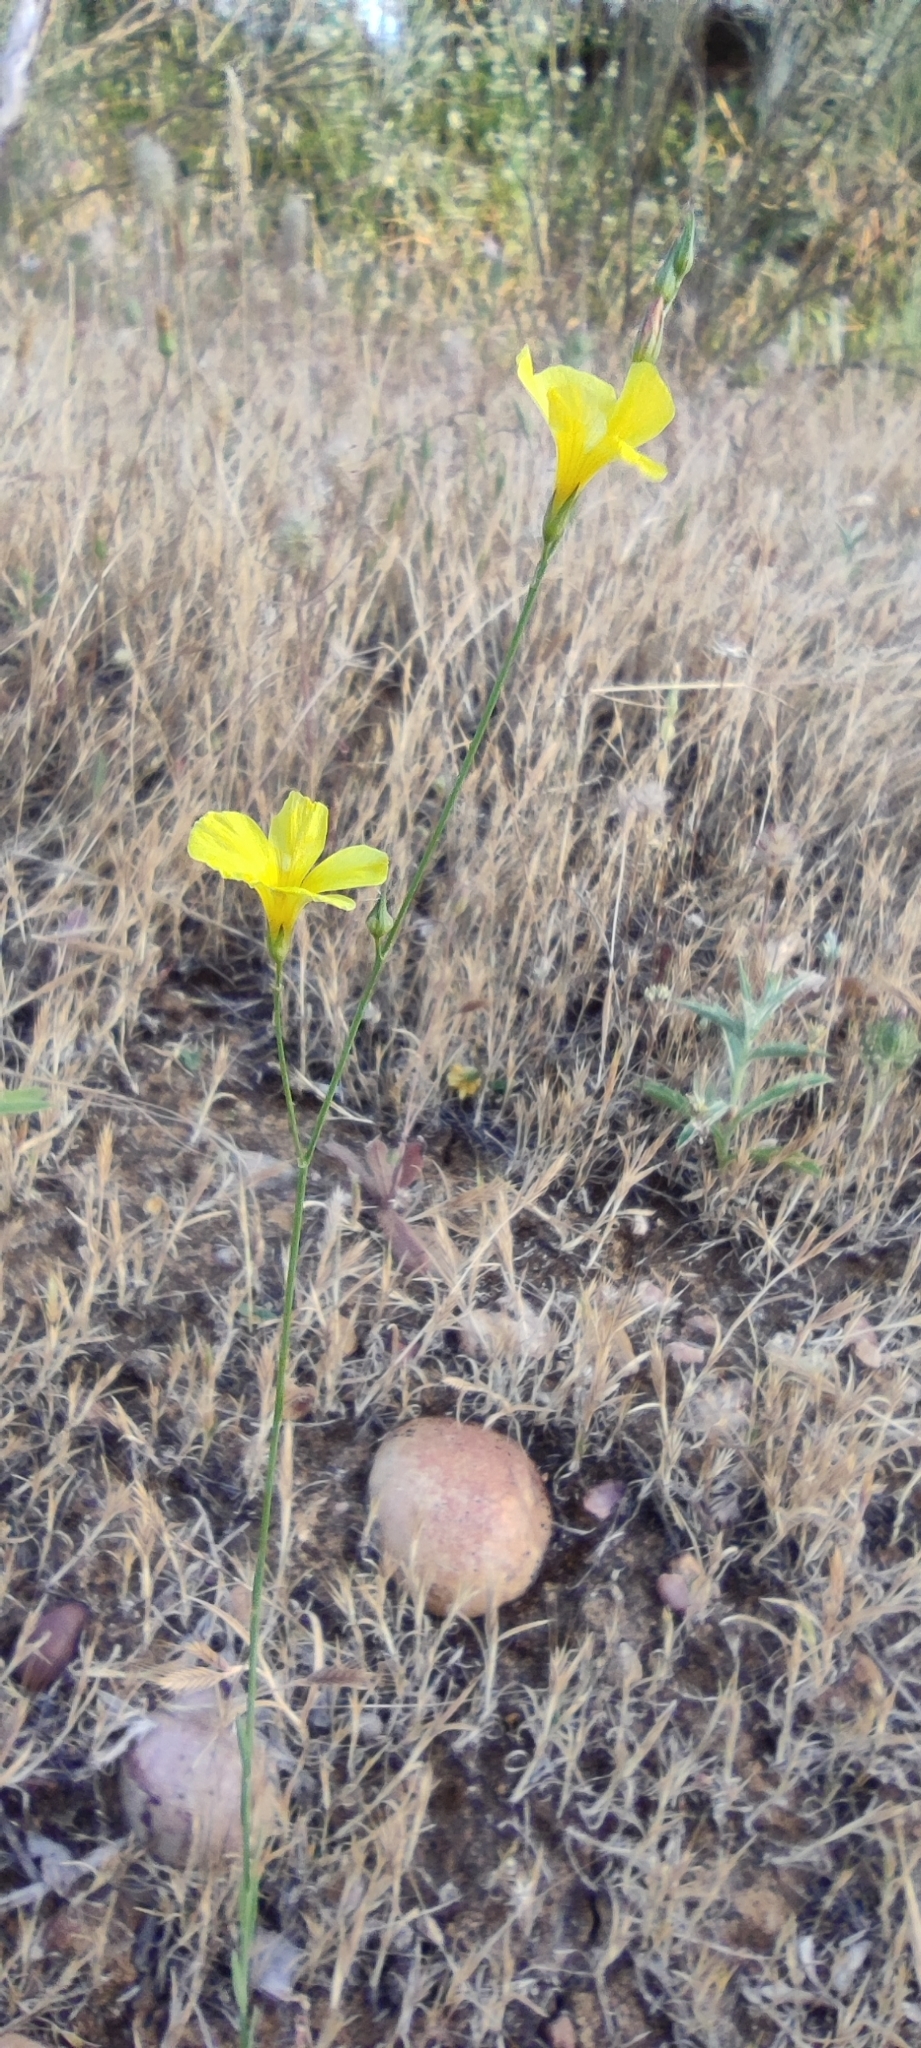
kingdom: Plantae
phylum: Tracheophyta
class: Magnoliopsida
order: Malpighiales
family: Linaceae
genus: Linum
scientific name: Linum tenue
